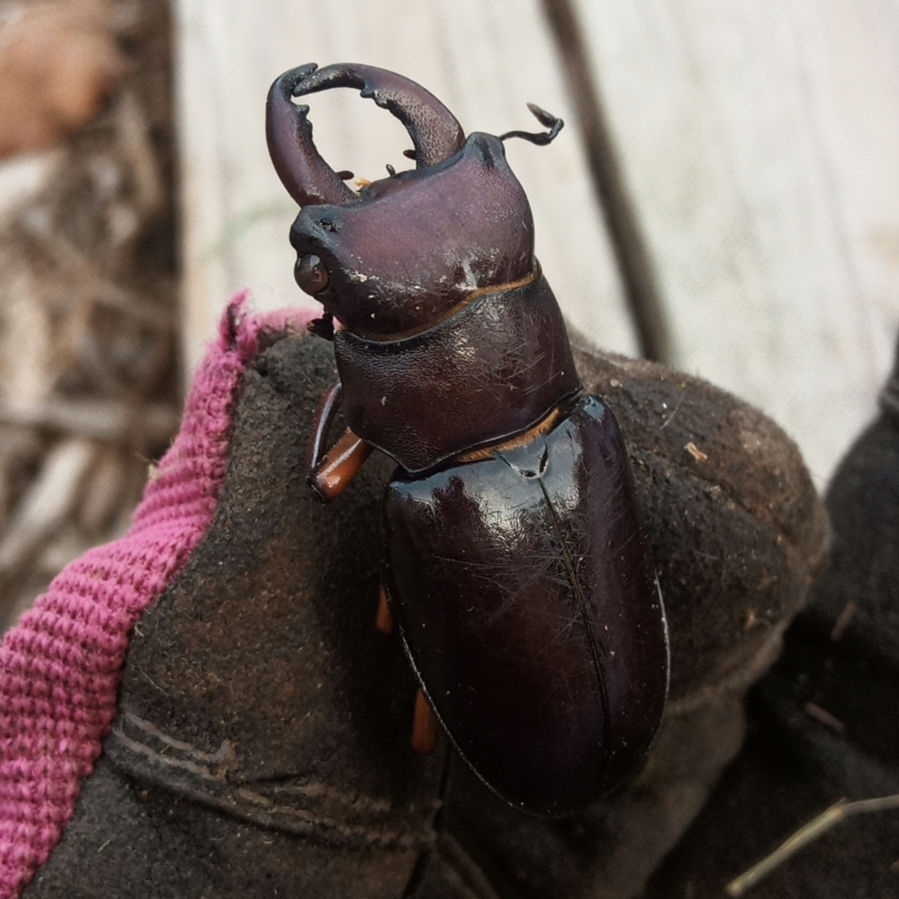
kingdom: Animalia
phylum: Arthropoda
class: Insecta
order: Coleoptera
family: Lucanidae
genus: Lucanus
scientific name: Lucanus capreolus
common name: Stag beetle
